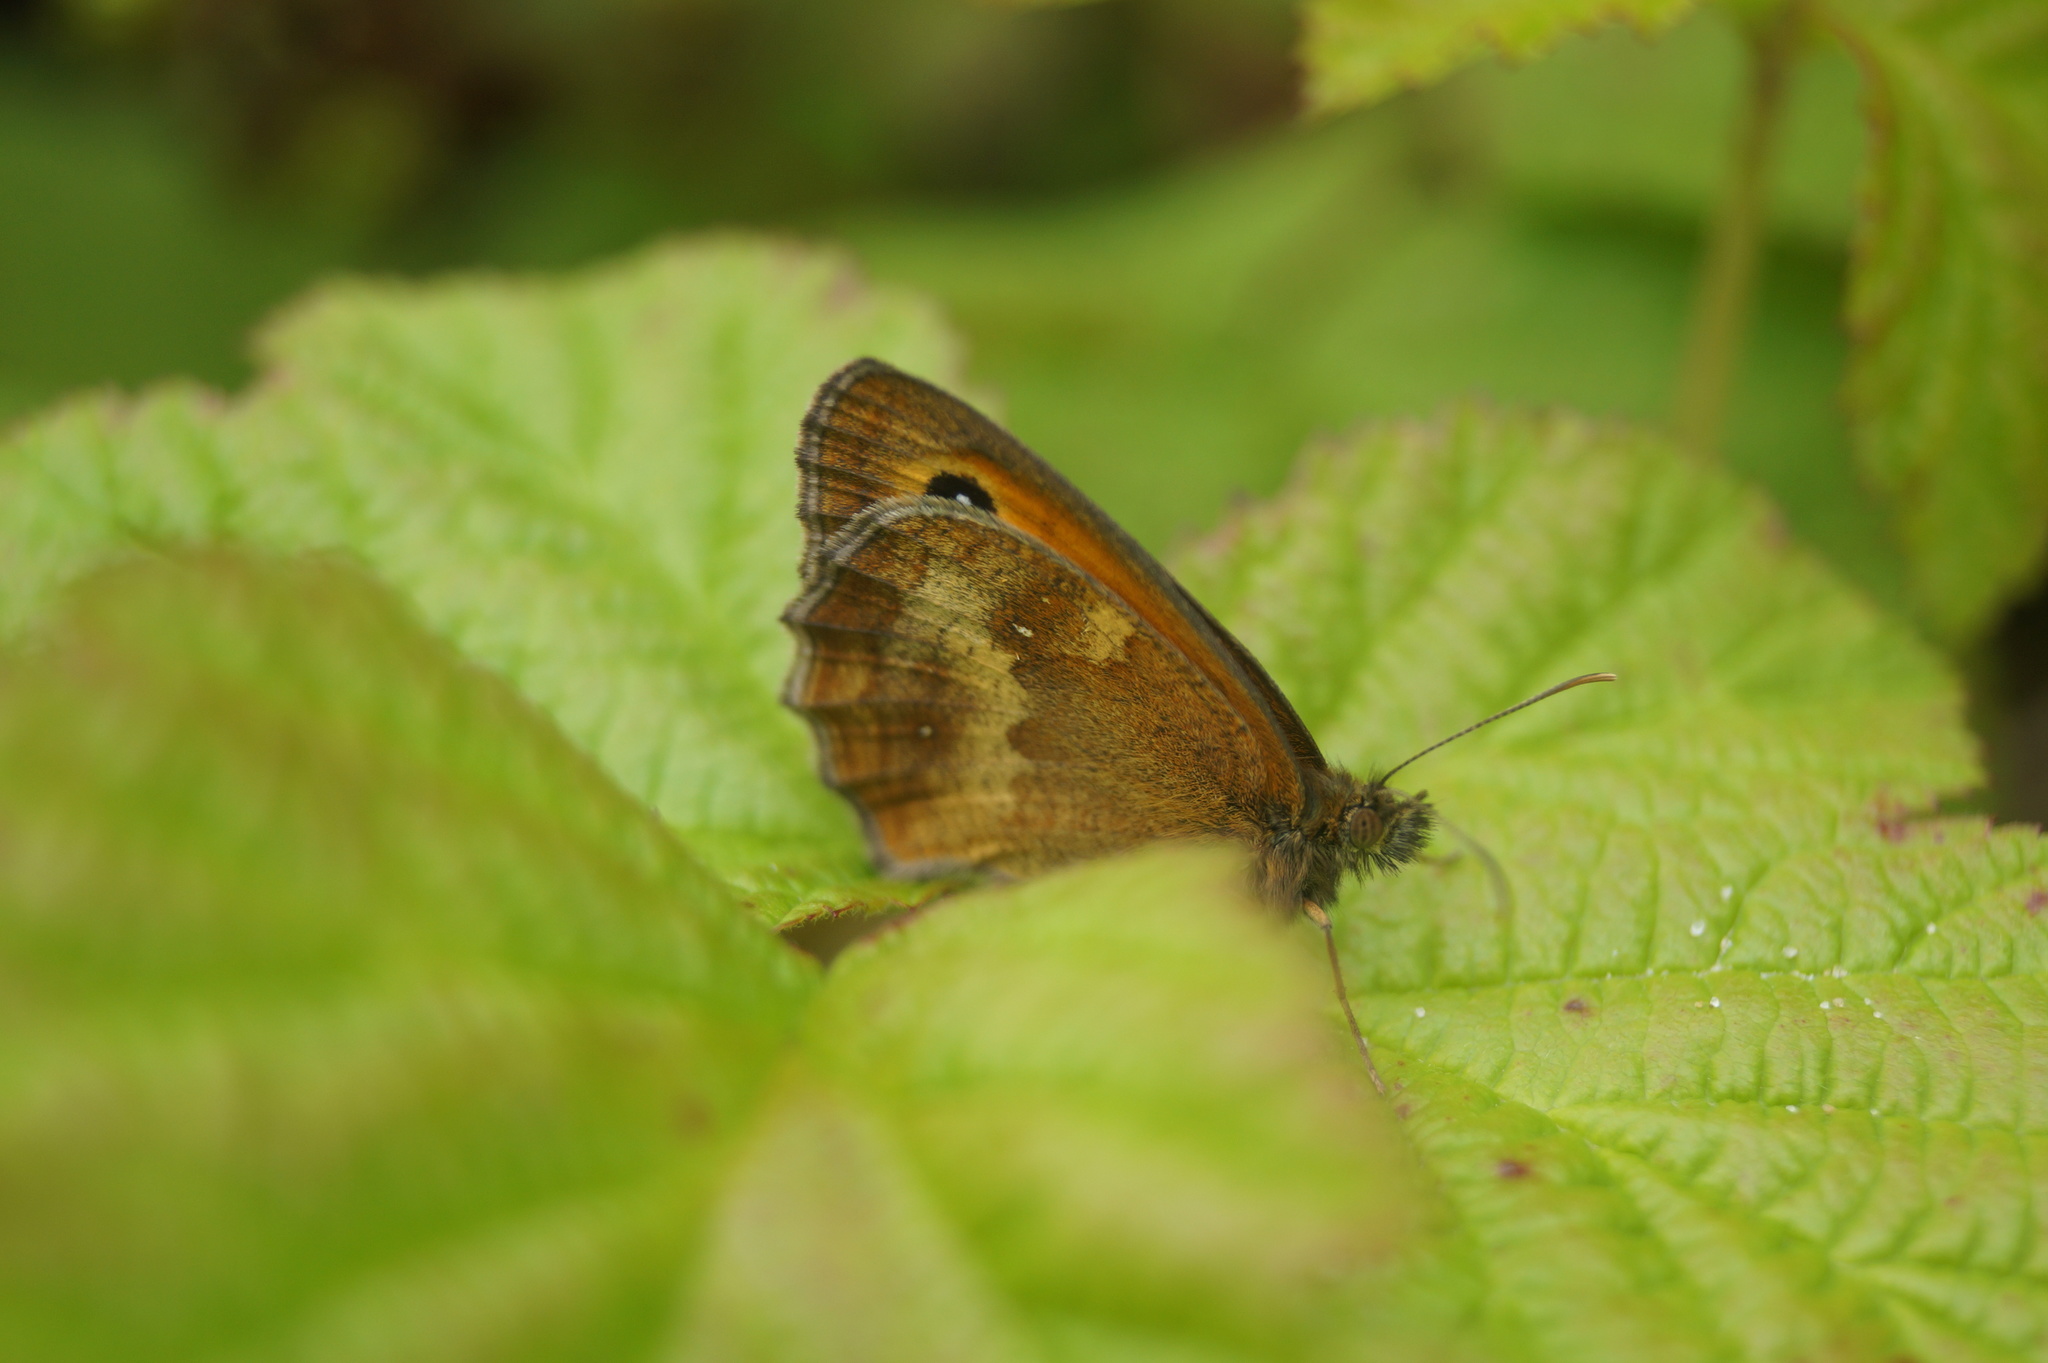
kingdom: Animalia
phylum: Arthropoda
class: Insecta
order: Lepidoptera
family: Nymphalidae
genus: Pyronia
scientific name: Pyronia tithonus
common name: Gatekeeper
